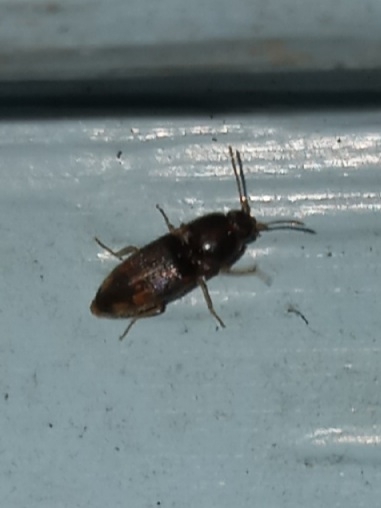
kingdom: Animalia
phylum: Arthropoda
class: Insecta
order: Coleoptera
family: Elateridae
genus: Monocrepidius
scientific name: Monocrepidius bellus
